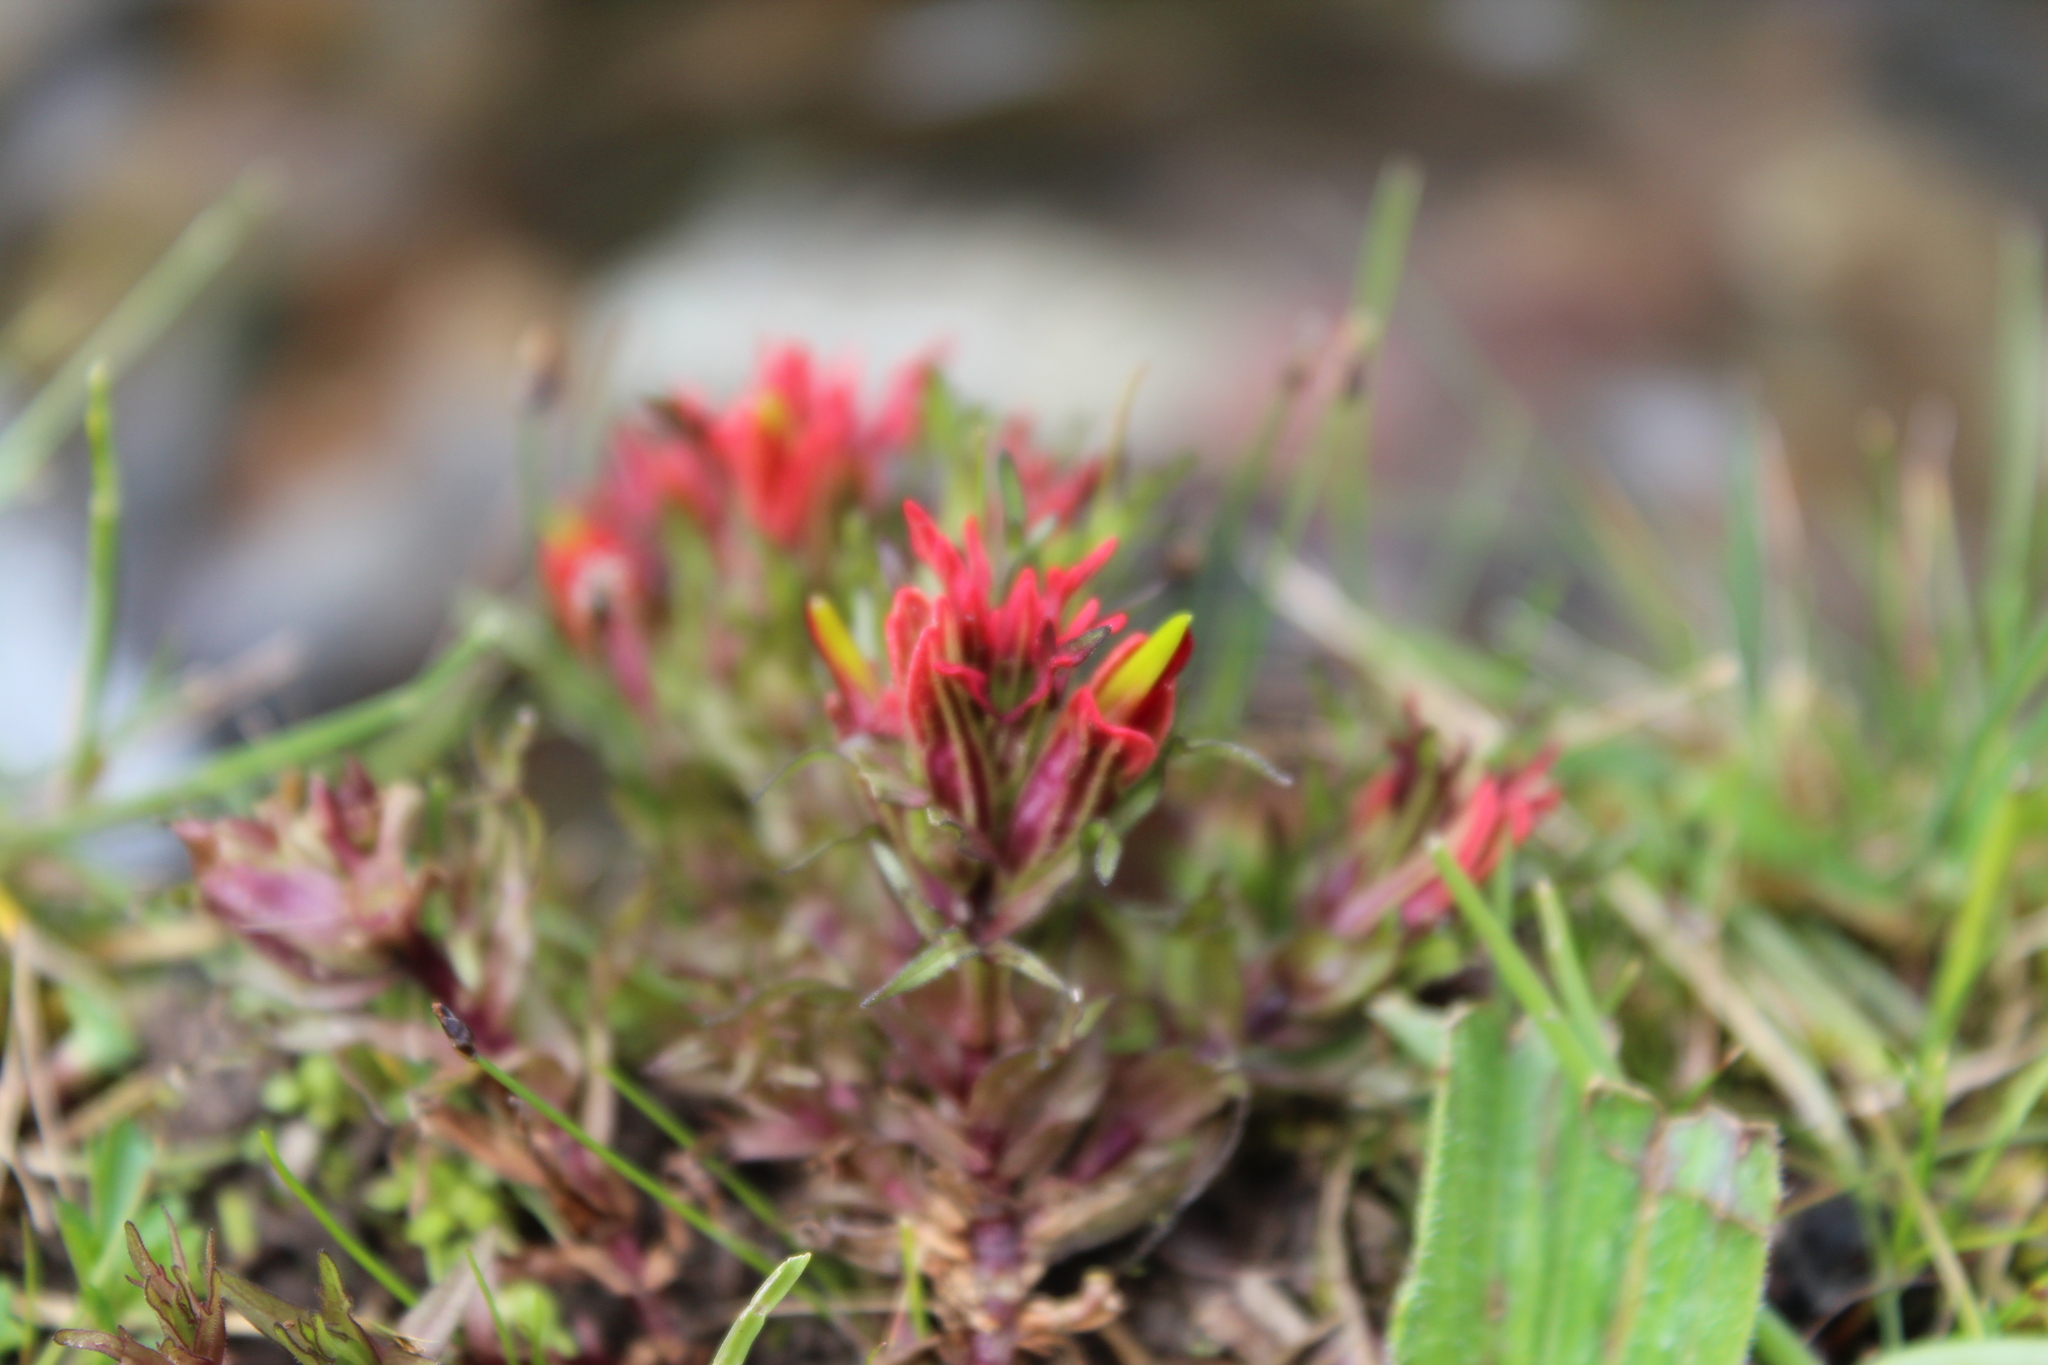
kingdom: Plantae
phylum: Tracheophyta
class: Magnoliopsida
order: Lamiales
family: Orobanchaceae
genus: Castilleja
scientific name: Castilleja pumila
